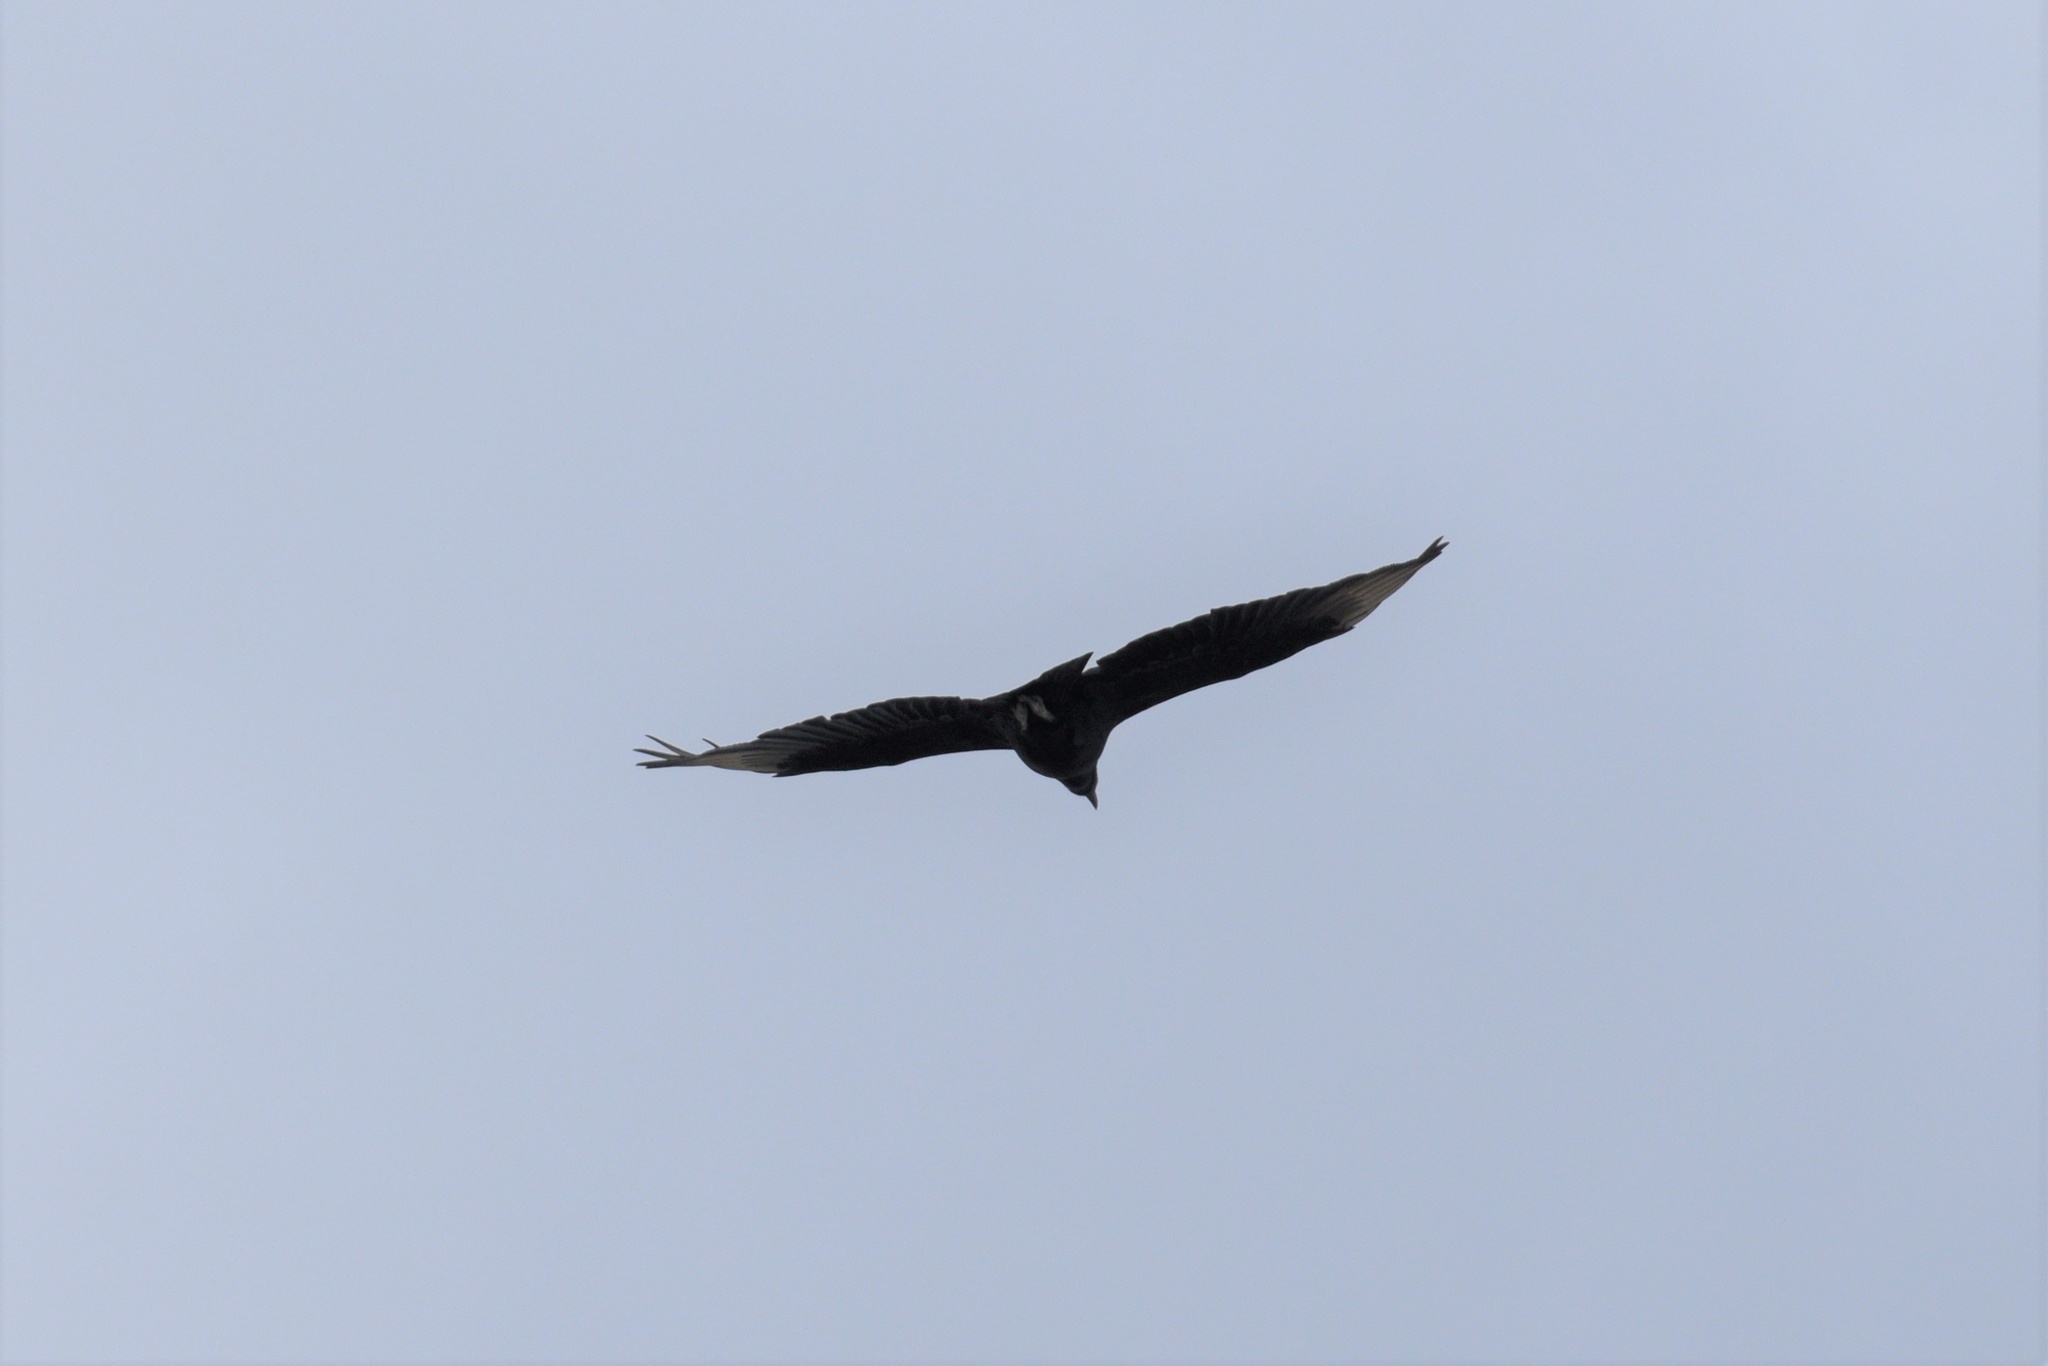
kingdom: Animalia
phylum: Chordata
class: Aves
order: Accipitriformes
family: Cathartidae
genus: Coragyps
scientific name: Coragyps atratus
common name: Black vulture
